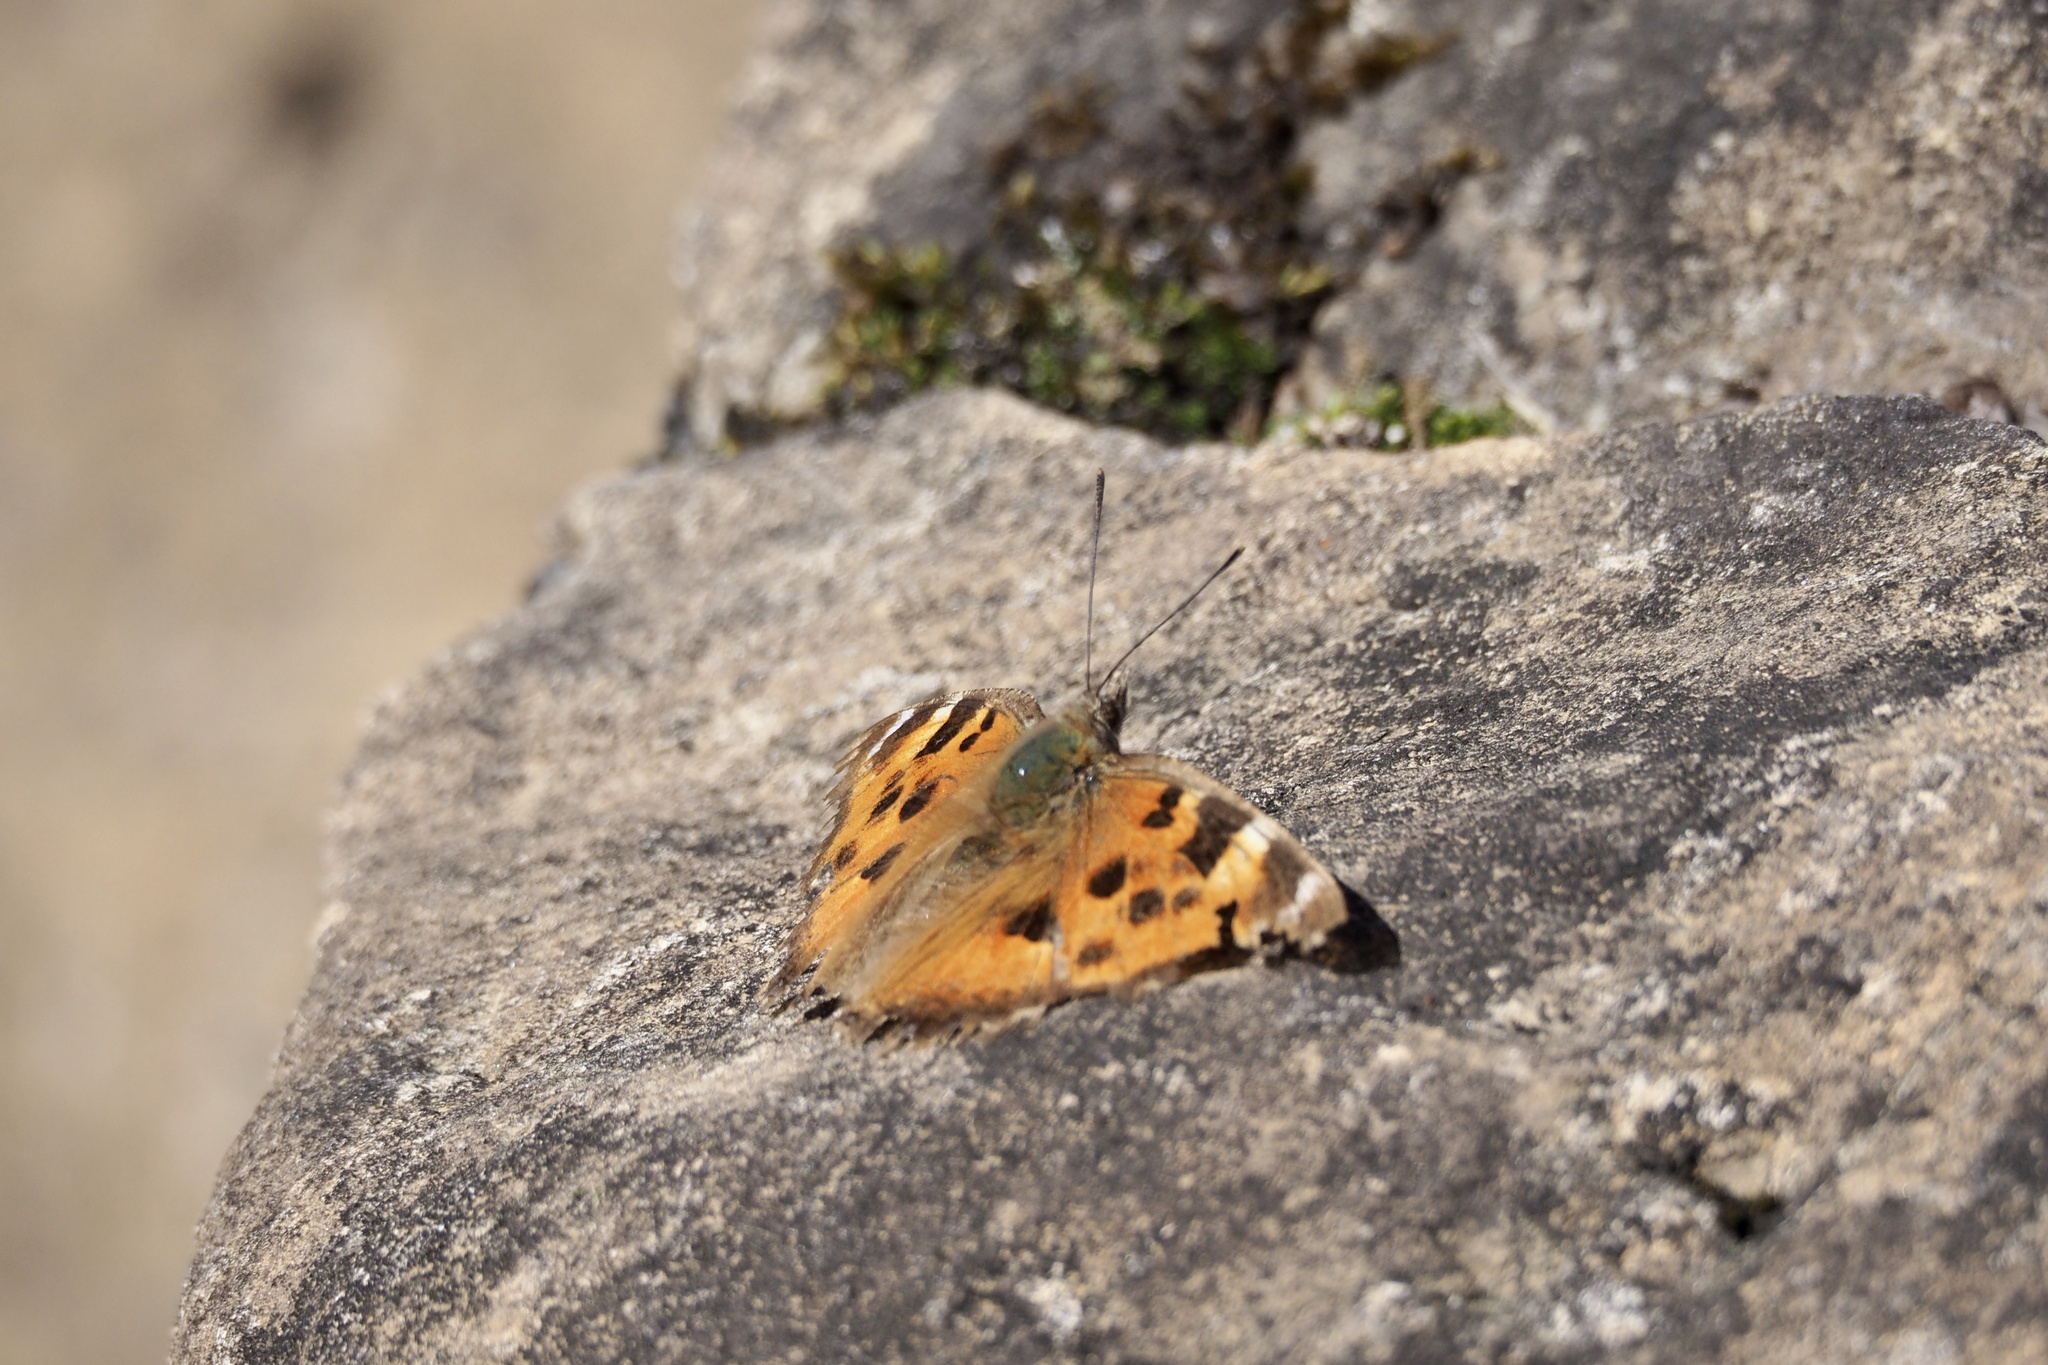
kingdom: Animalia
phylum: Arthropoda
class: Insecta
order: Lepidoptera
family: Nymphalidae
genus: Nymphalis
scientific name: Nymphalis xanthomelas
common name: Scarce tortoiseshell
